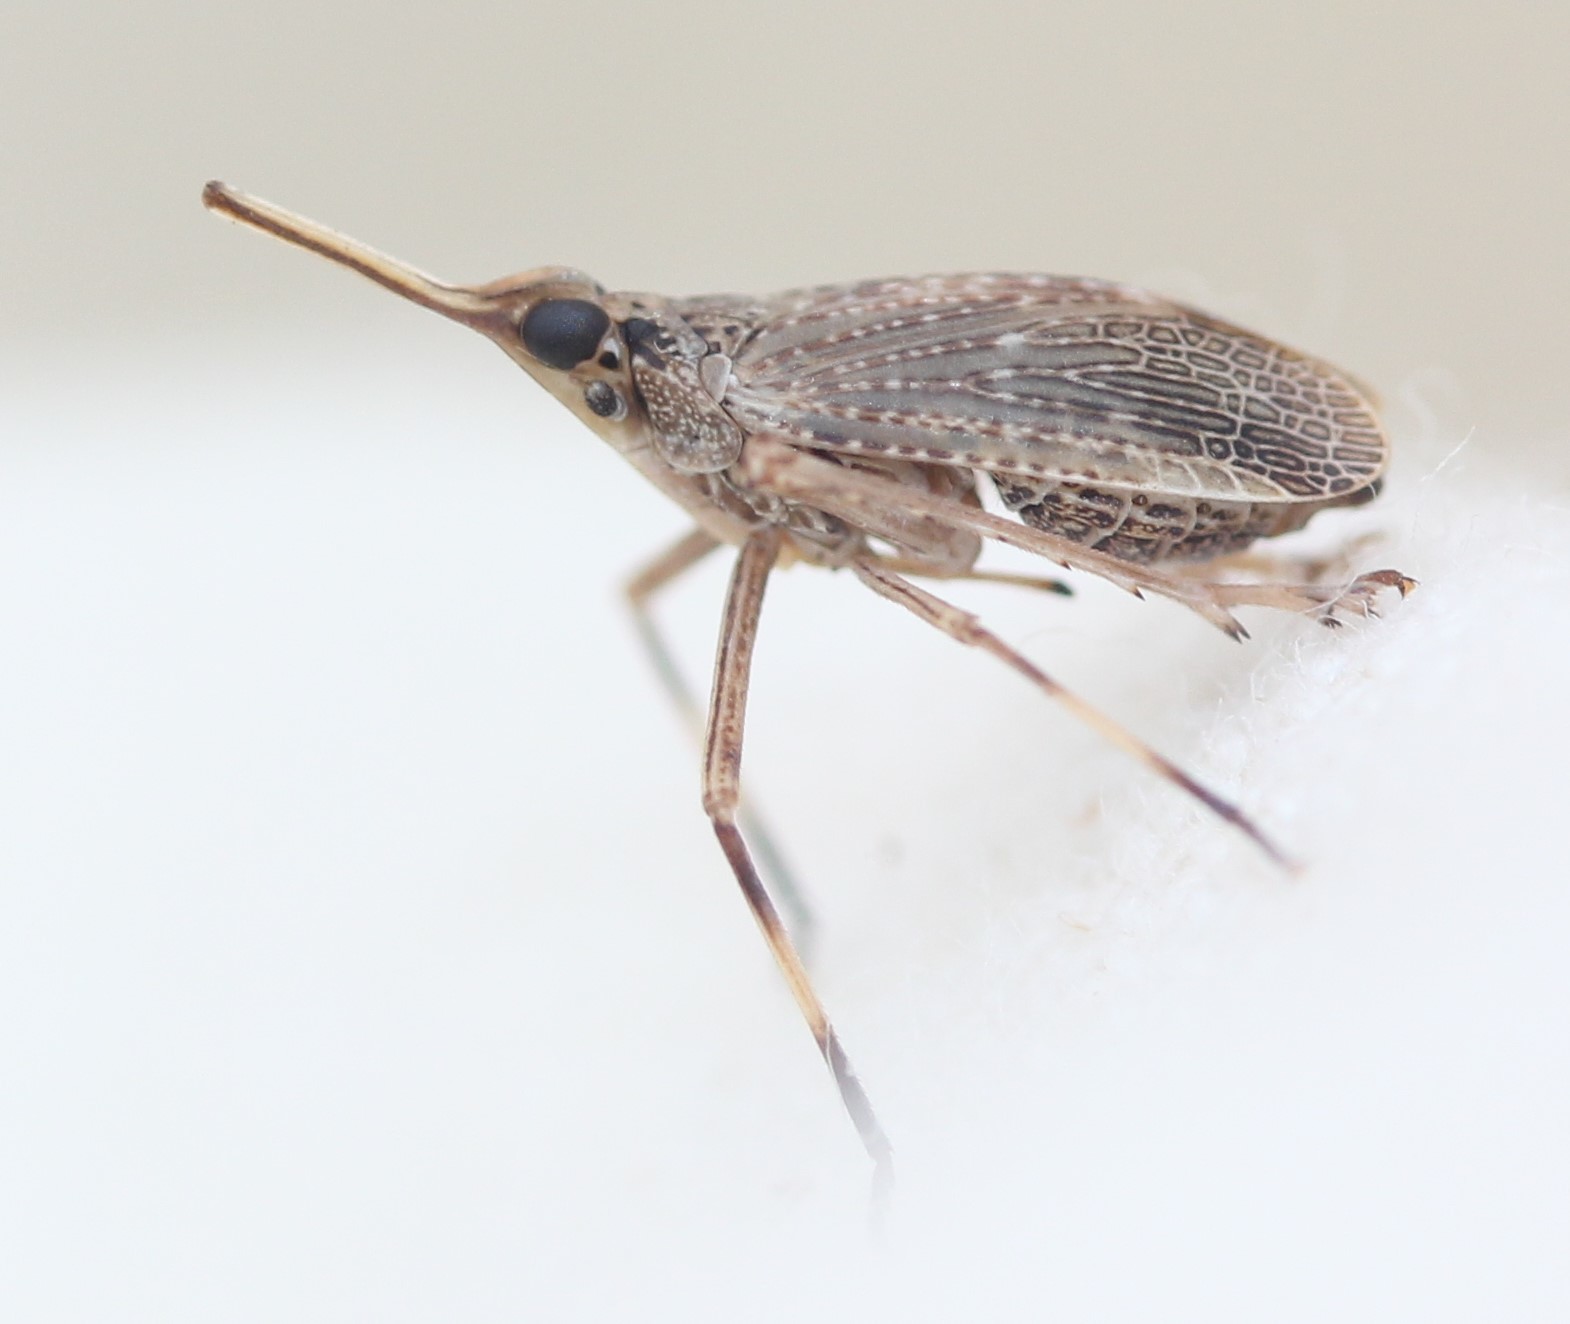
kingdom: Animalia
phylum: Arthropoda
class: Insecta
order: Hemiptera
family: Dictyopharidae
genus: Scolops
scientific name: Scolops sulcipes
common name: Partridge planthopper
